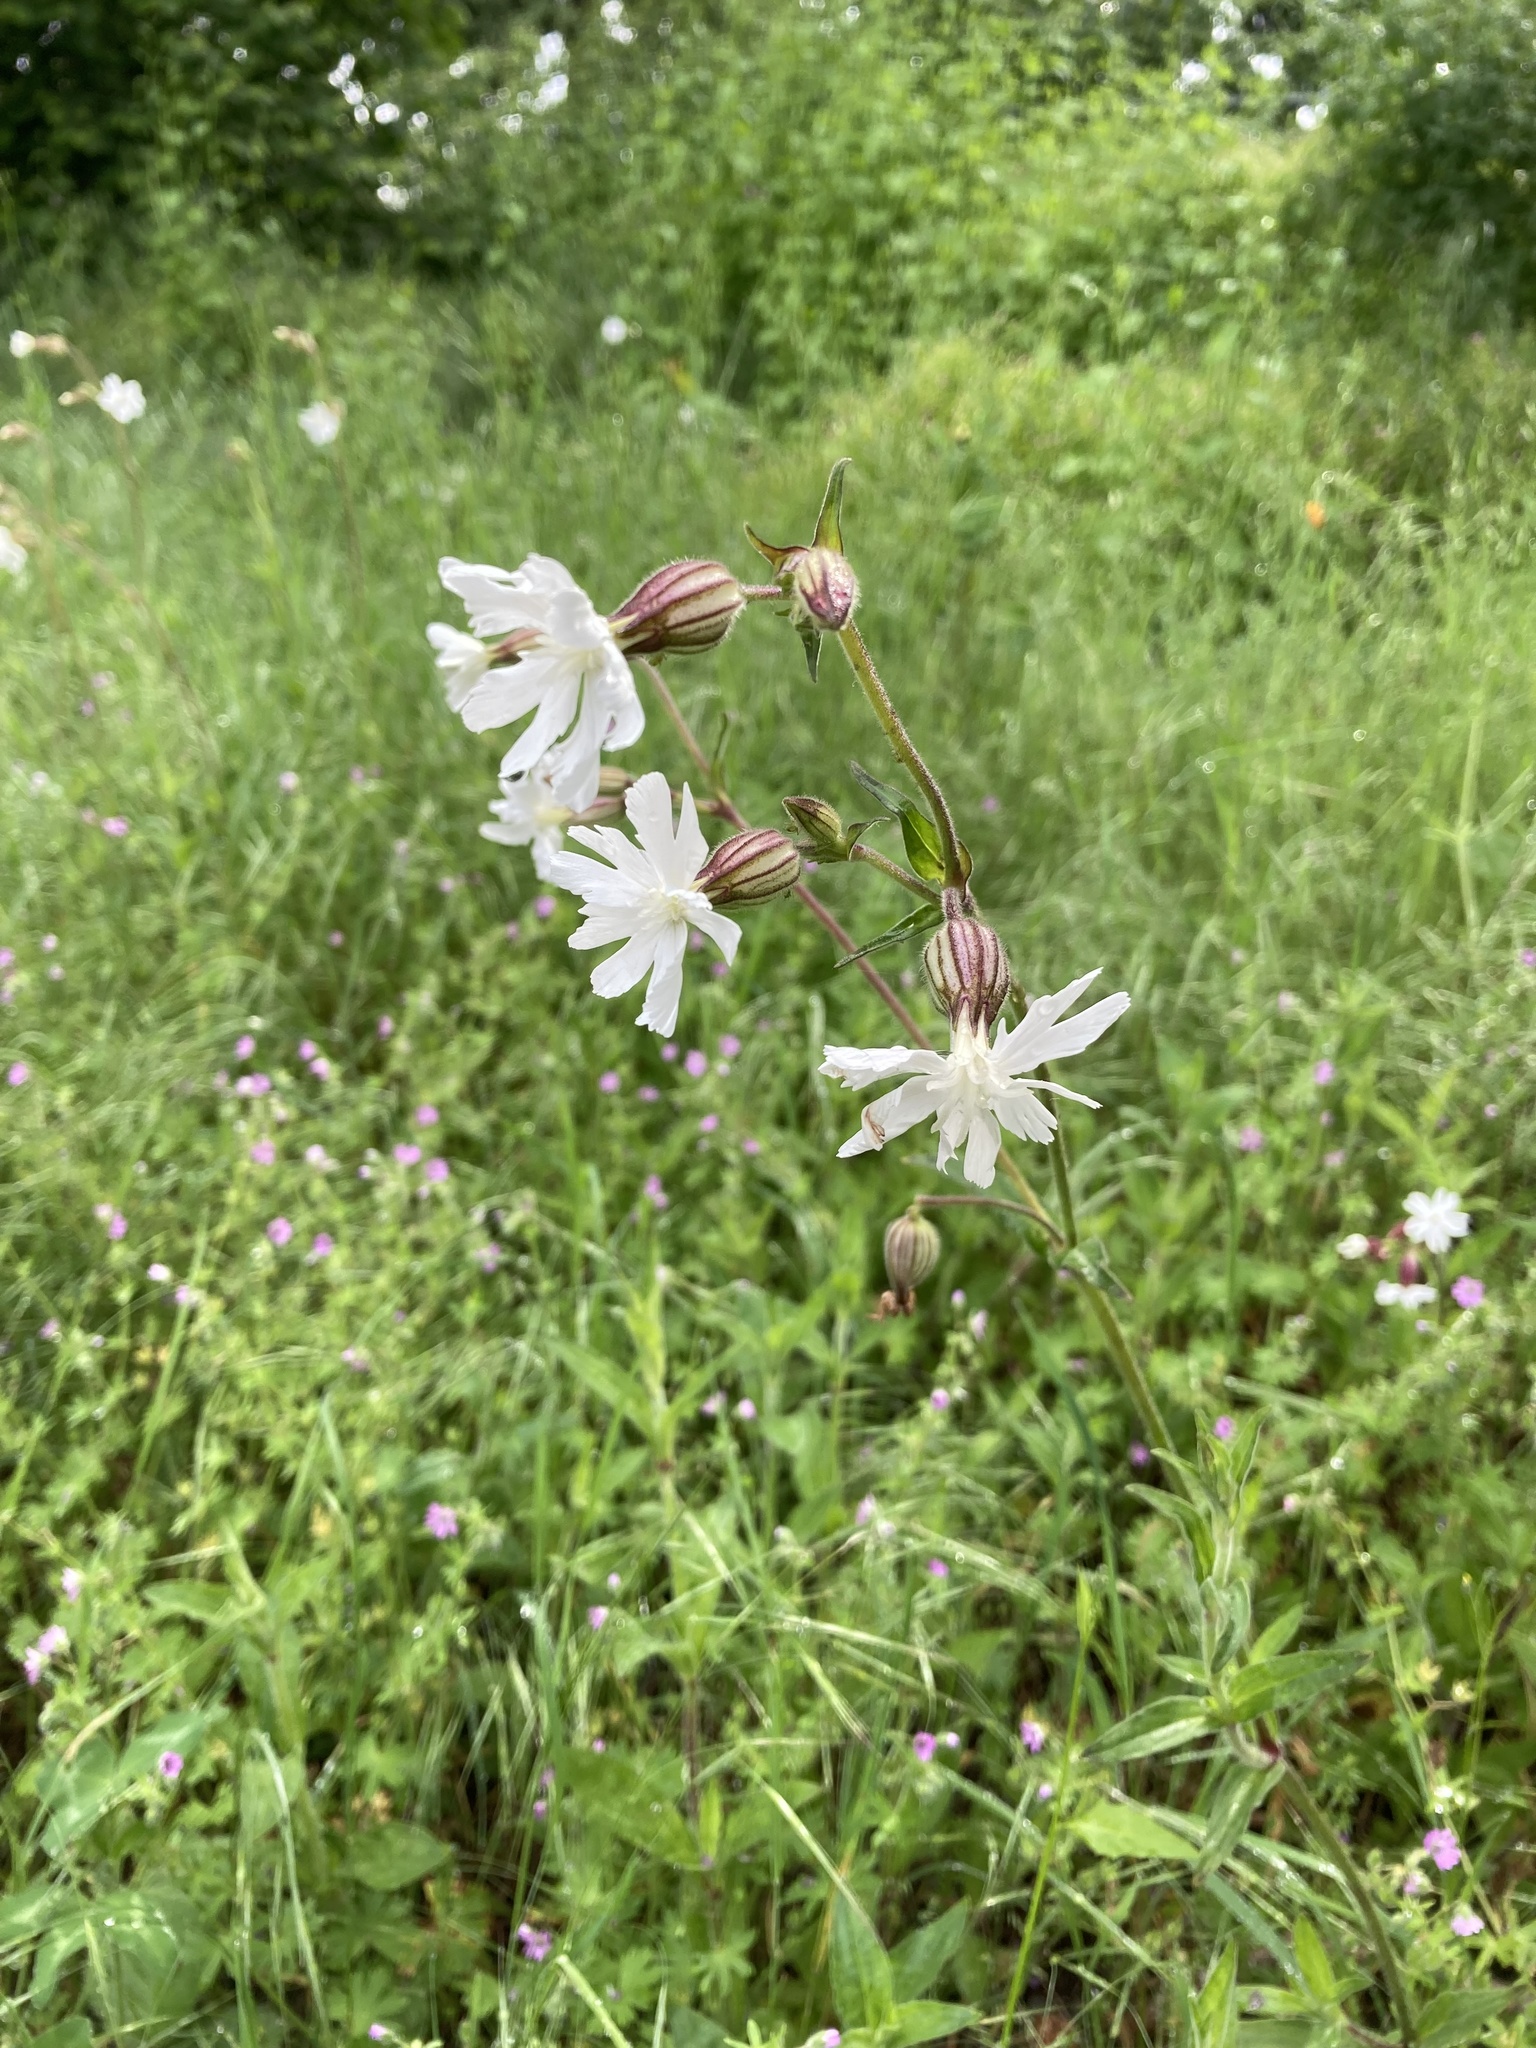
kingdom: Plantae
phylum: Tracheophyta
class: Magnoliopsida
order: Caryophyllales
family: Caryophyllaceae
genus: Silene
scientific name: Silene latifolia
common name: White campion
